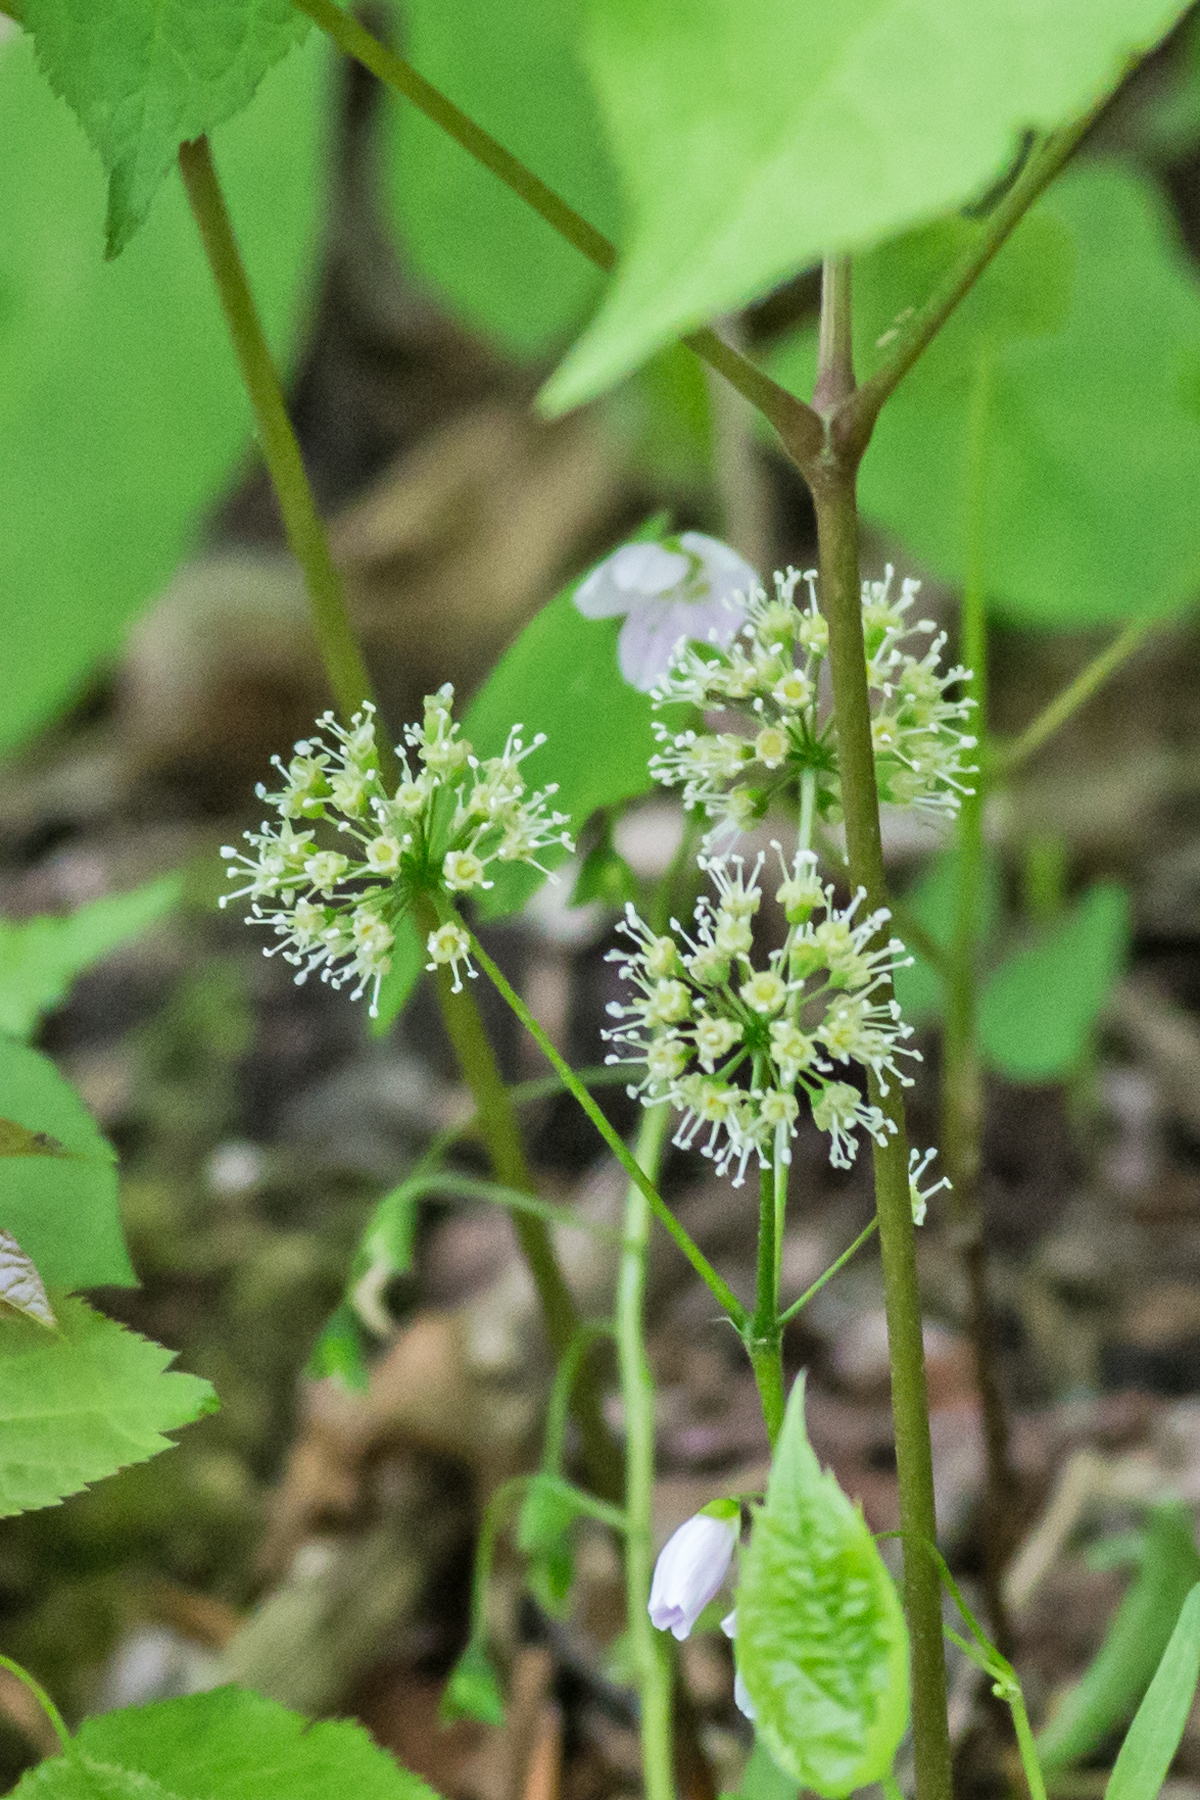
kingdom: Plantae
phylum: Tracheophyta
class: Magnoliopsida
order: Apiales
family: Araliaceae
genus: Aralia
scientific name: Aralia nudicaulis
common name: Wild sarsaparilla
